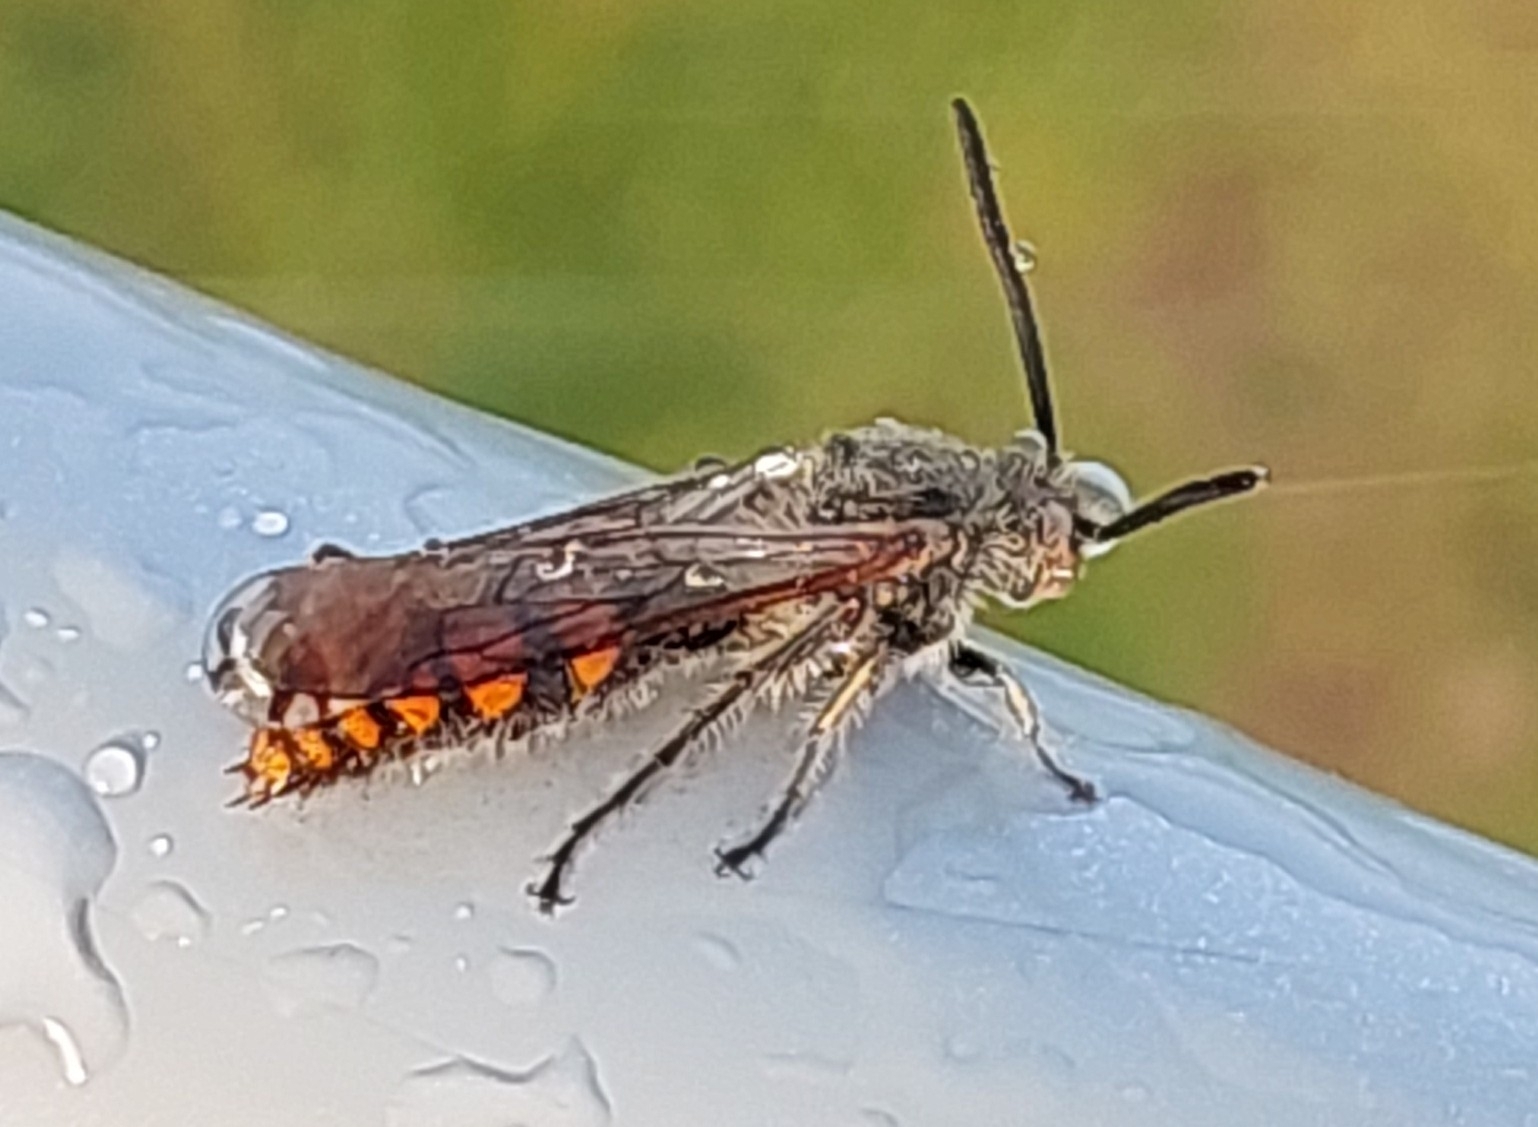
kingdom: Animalia
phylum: Arthropoda
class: Insecta
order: Hymenoptera
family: Scoliidae
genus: Campsomeriella
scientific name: Campsomeriella thoracica
